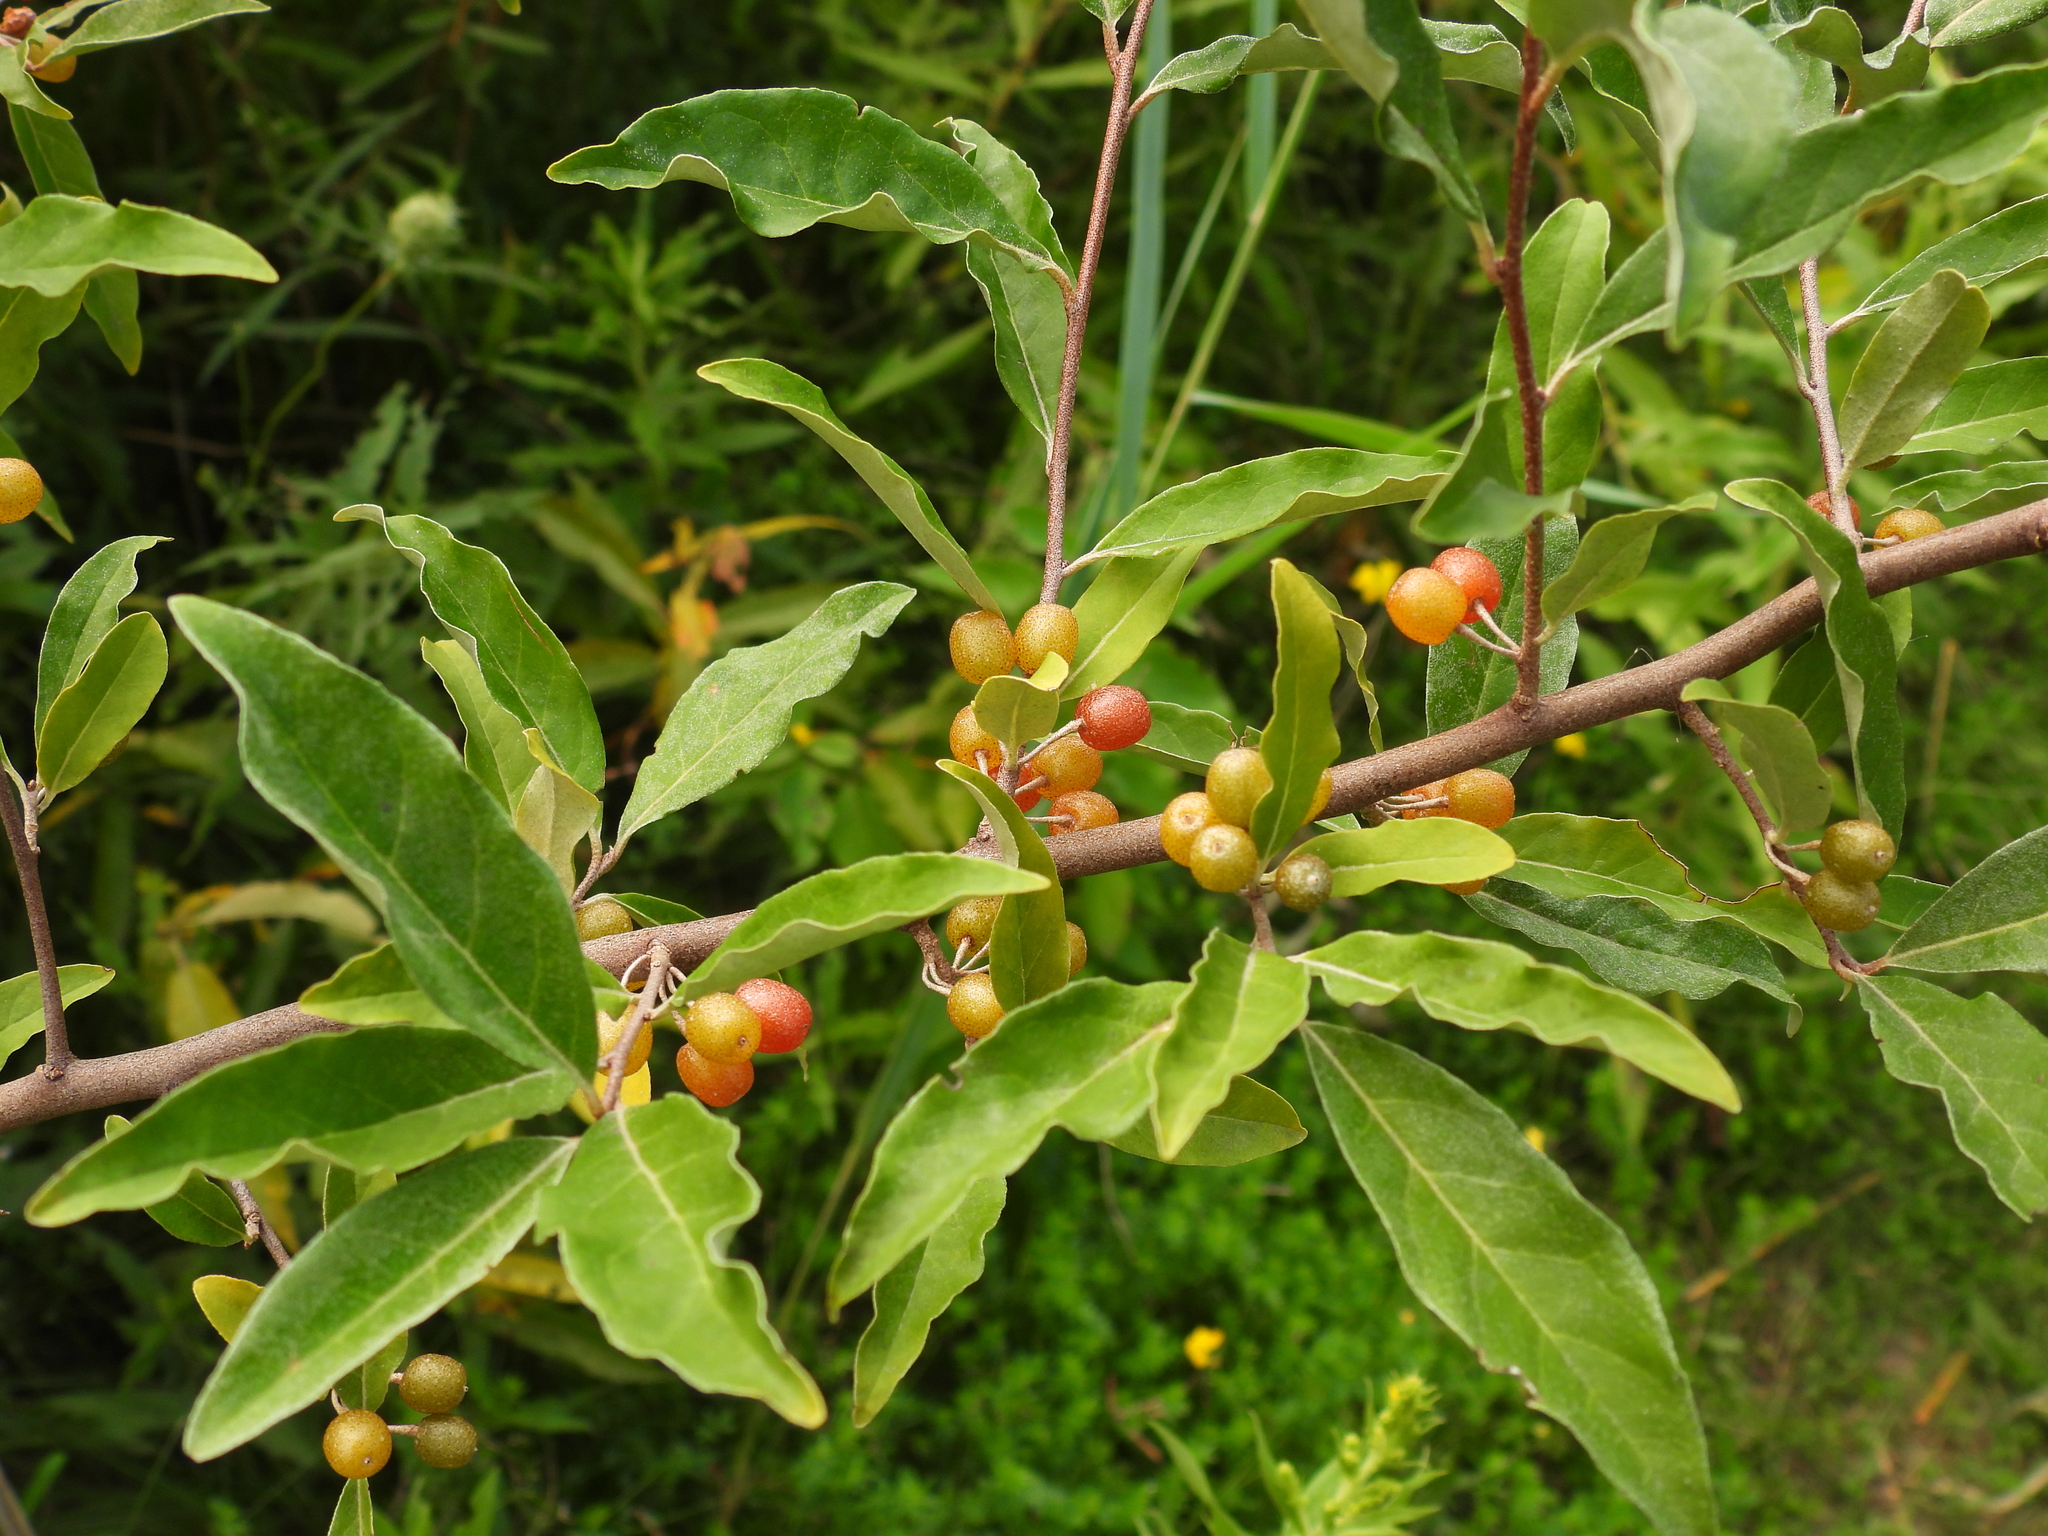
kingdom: Plantae
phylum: Tracheophyta
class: Magnoliopsida
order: Rosales
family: Elaeagnaceae
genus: Elaeagnus
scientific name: Elaeagnus umbellata
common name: Autumn olive
